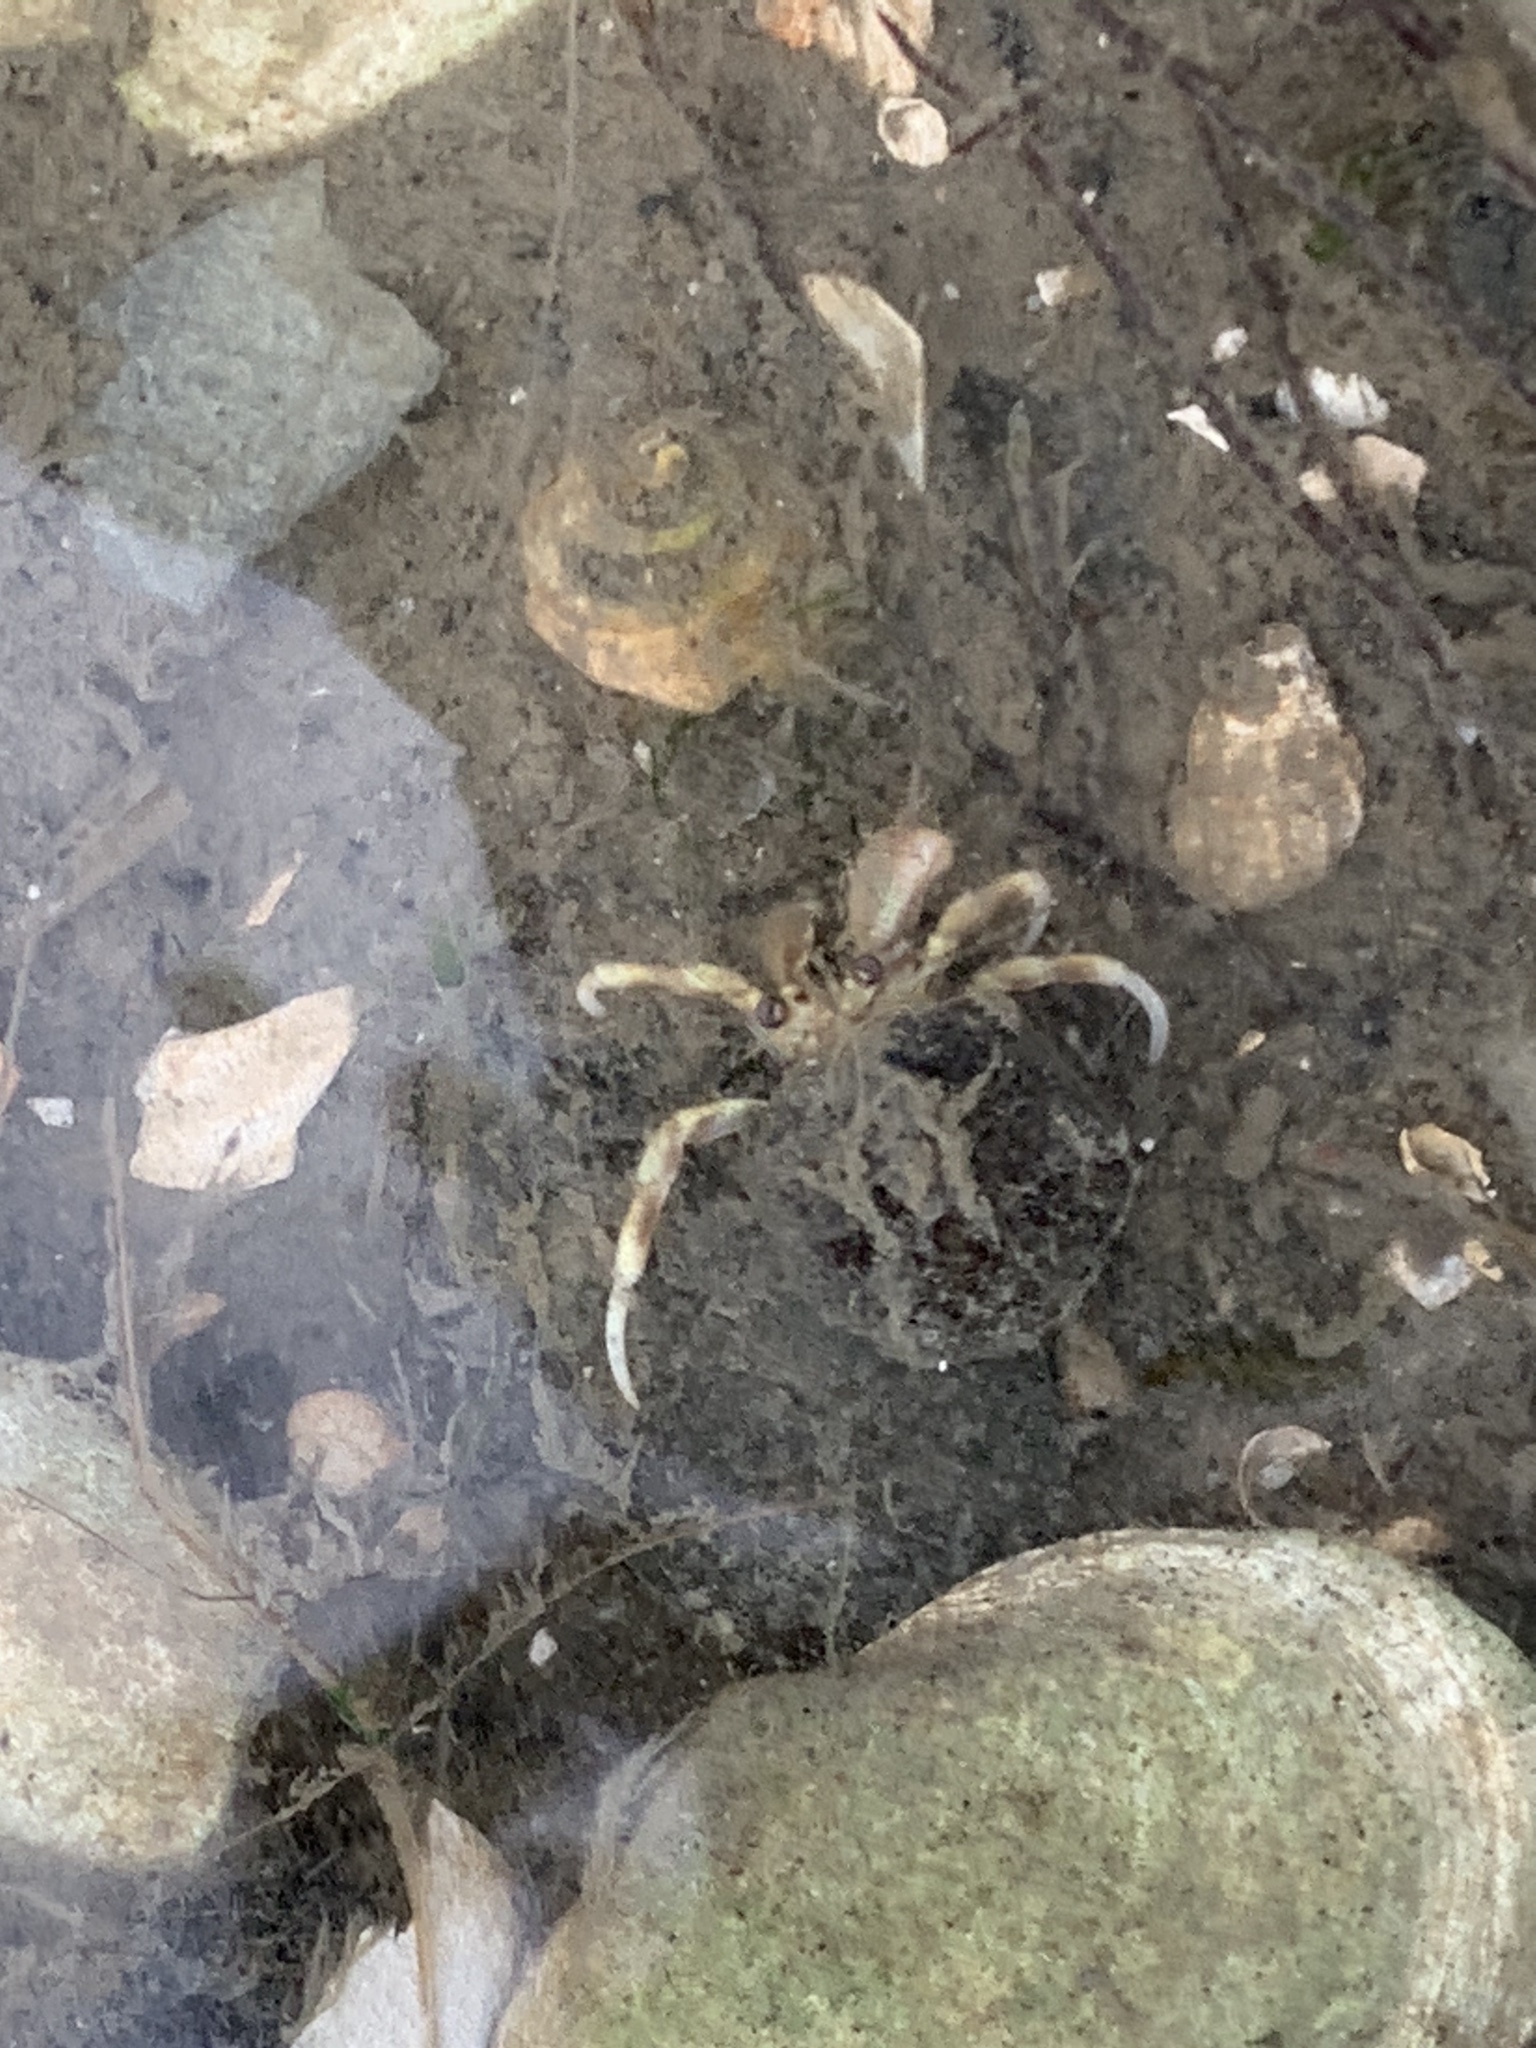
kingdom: Animalia
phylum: Arthropoda
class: Malacostraca
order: Decapoda
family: Paguridae
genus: Pagurus
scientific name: Pagurus longicarpus
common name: Long-armed hermit crab
